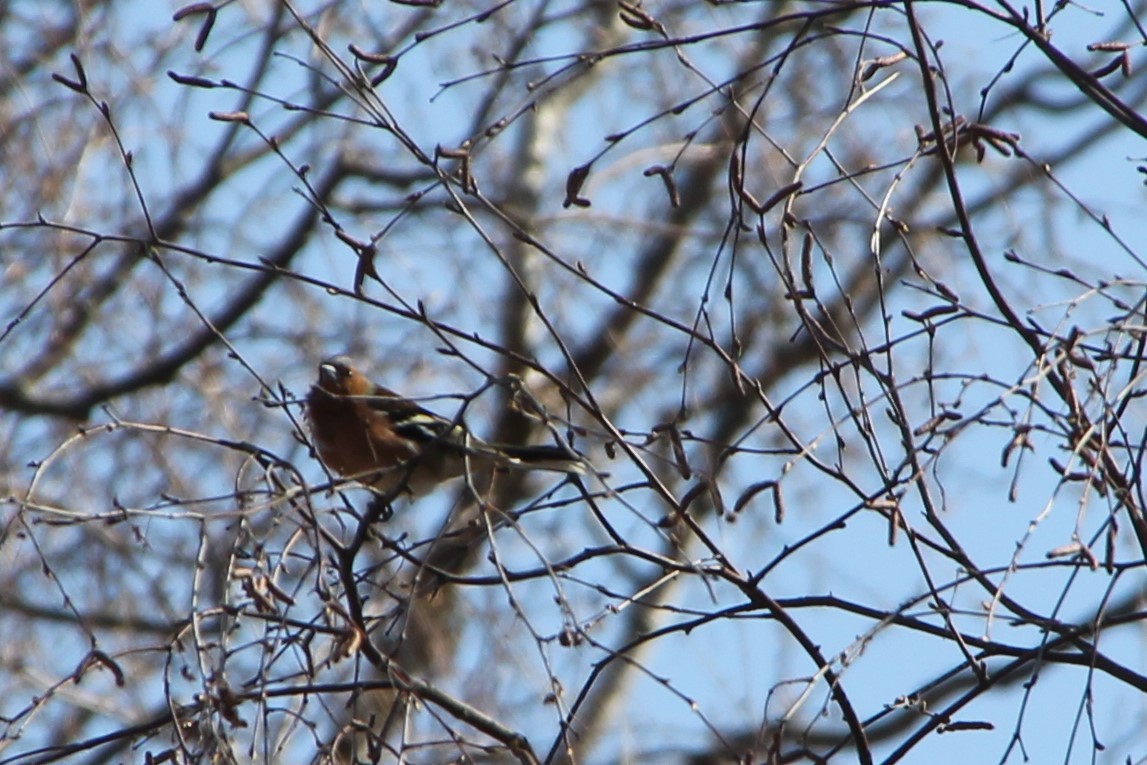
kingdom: Animalia
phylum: Chordata
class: Aves
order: Passeriformes
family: Fringillidae
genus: Fringilla
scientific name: Fringilla coelebs
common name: Common chaffinch
